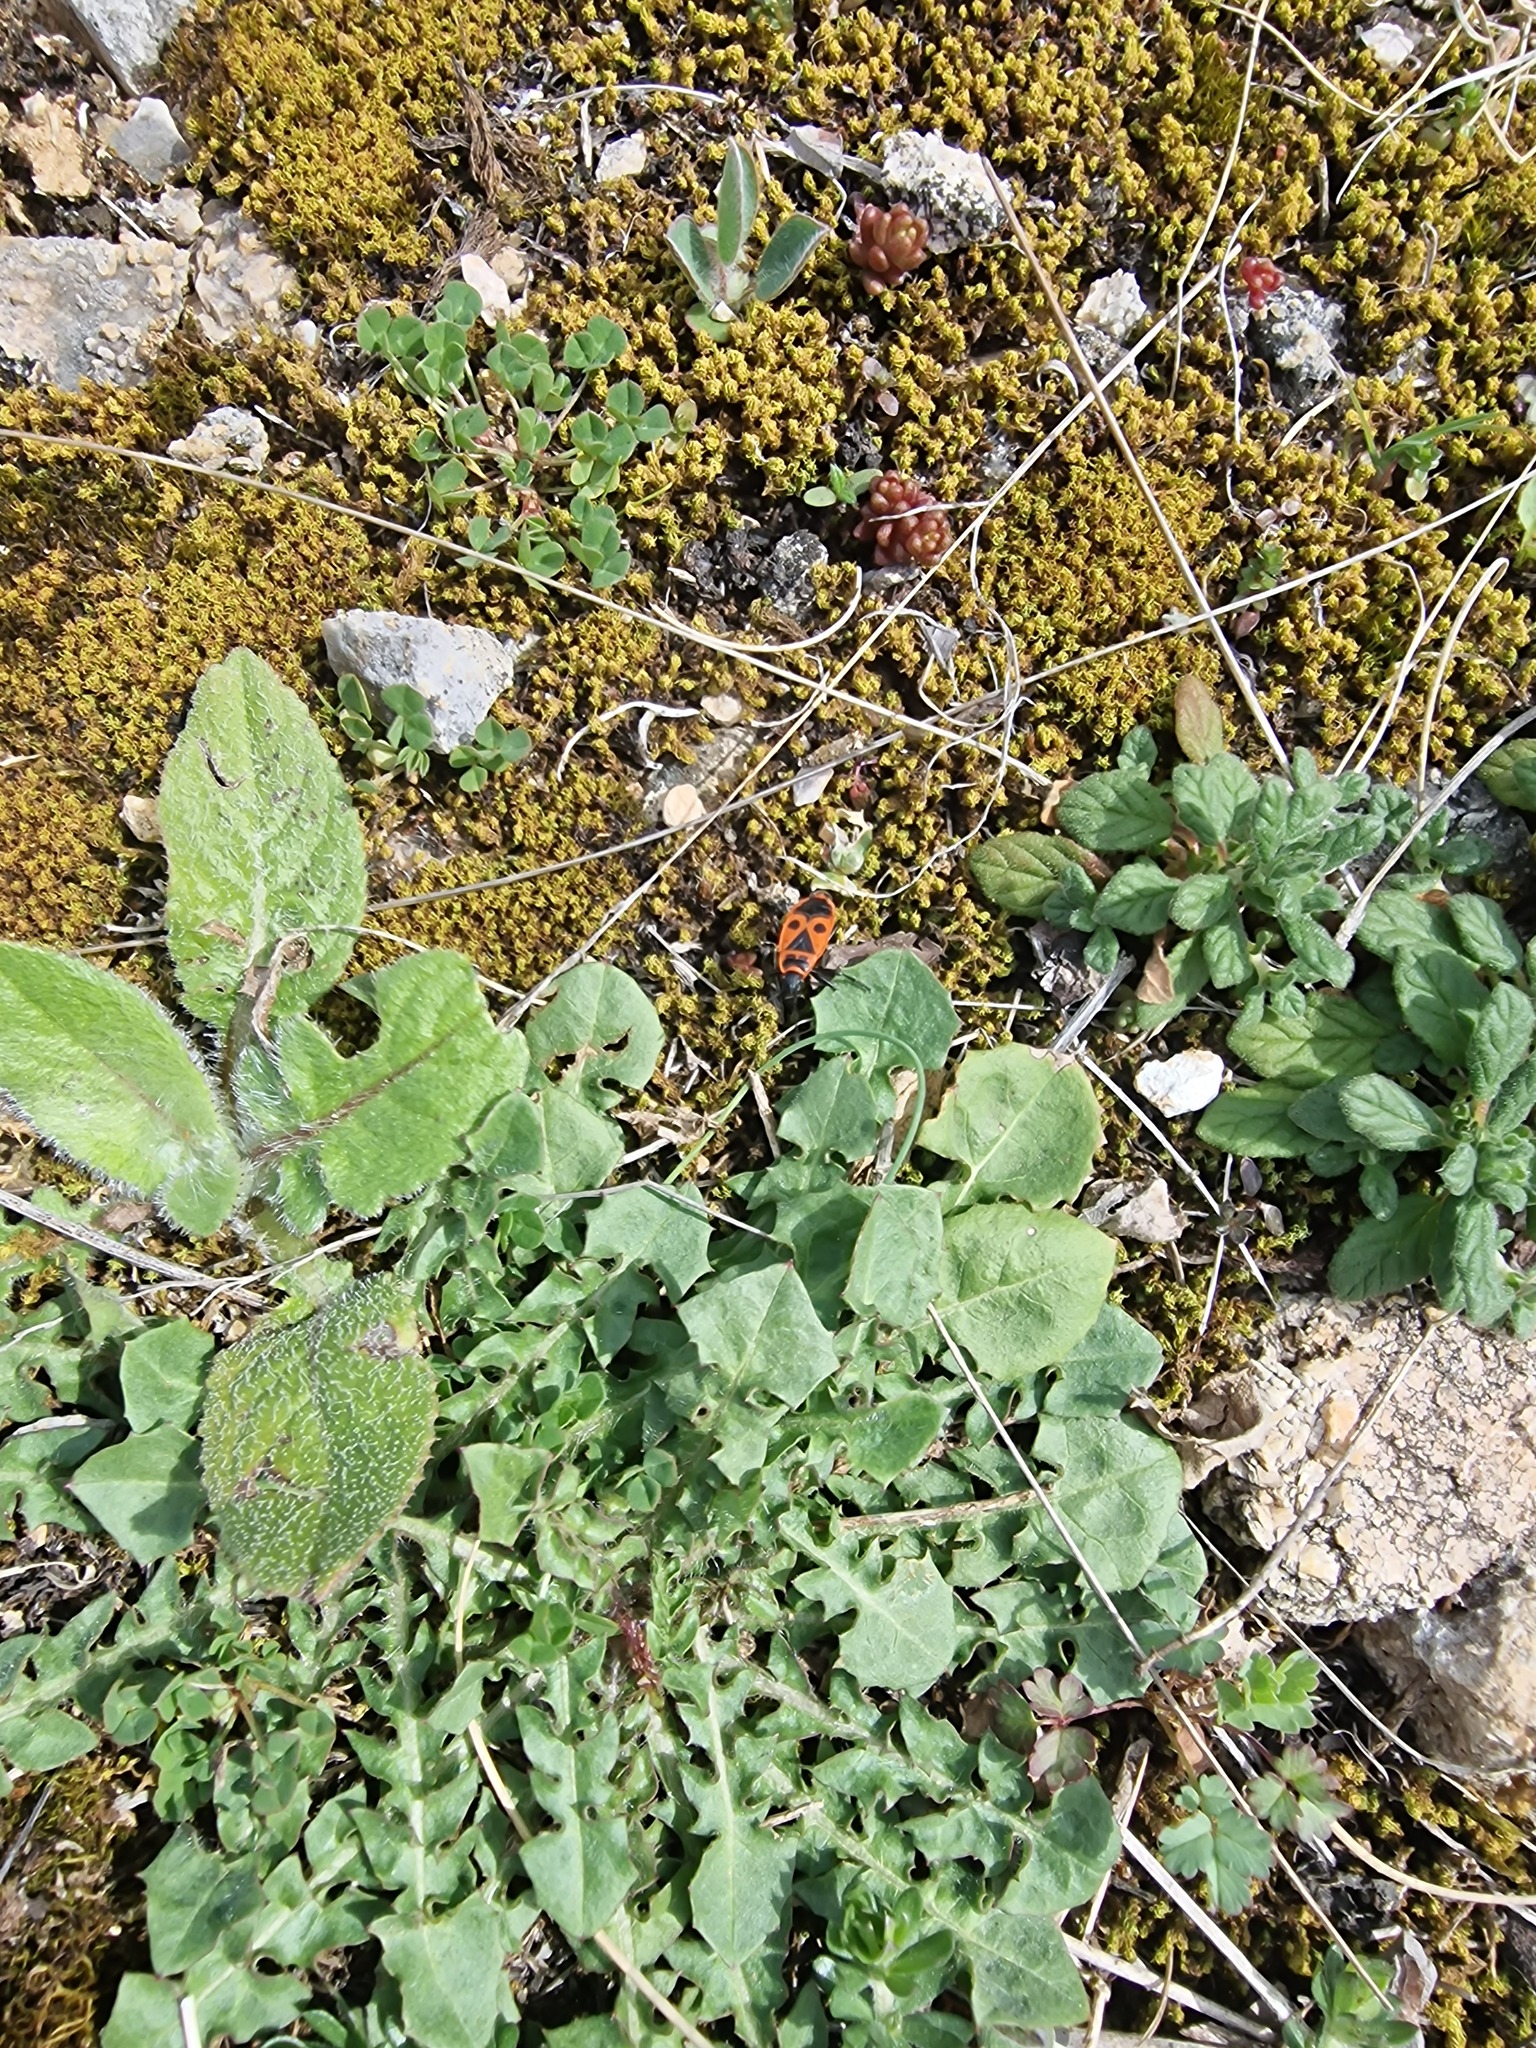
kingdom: Animalia
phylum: Arthropoda
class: Insecta
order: Hemiptera
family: Pyrrhocoridae
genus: Pyrrhocoris
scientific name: Pyrrhocoris apterus
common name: Firebug
